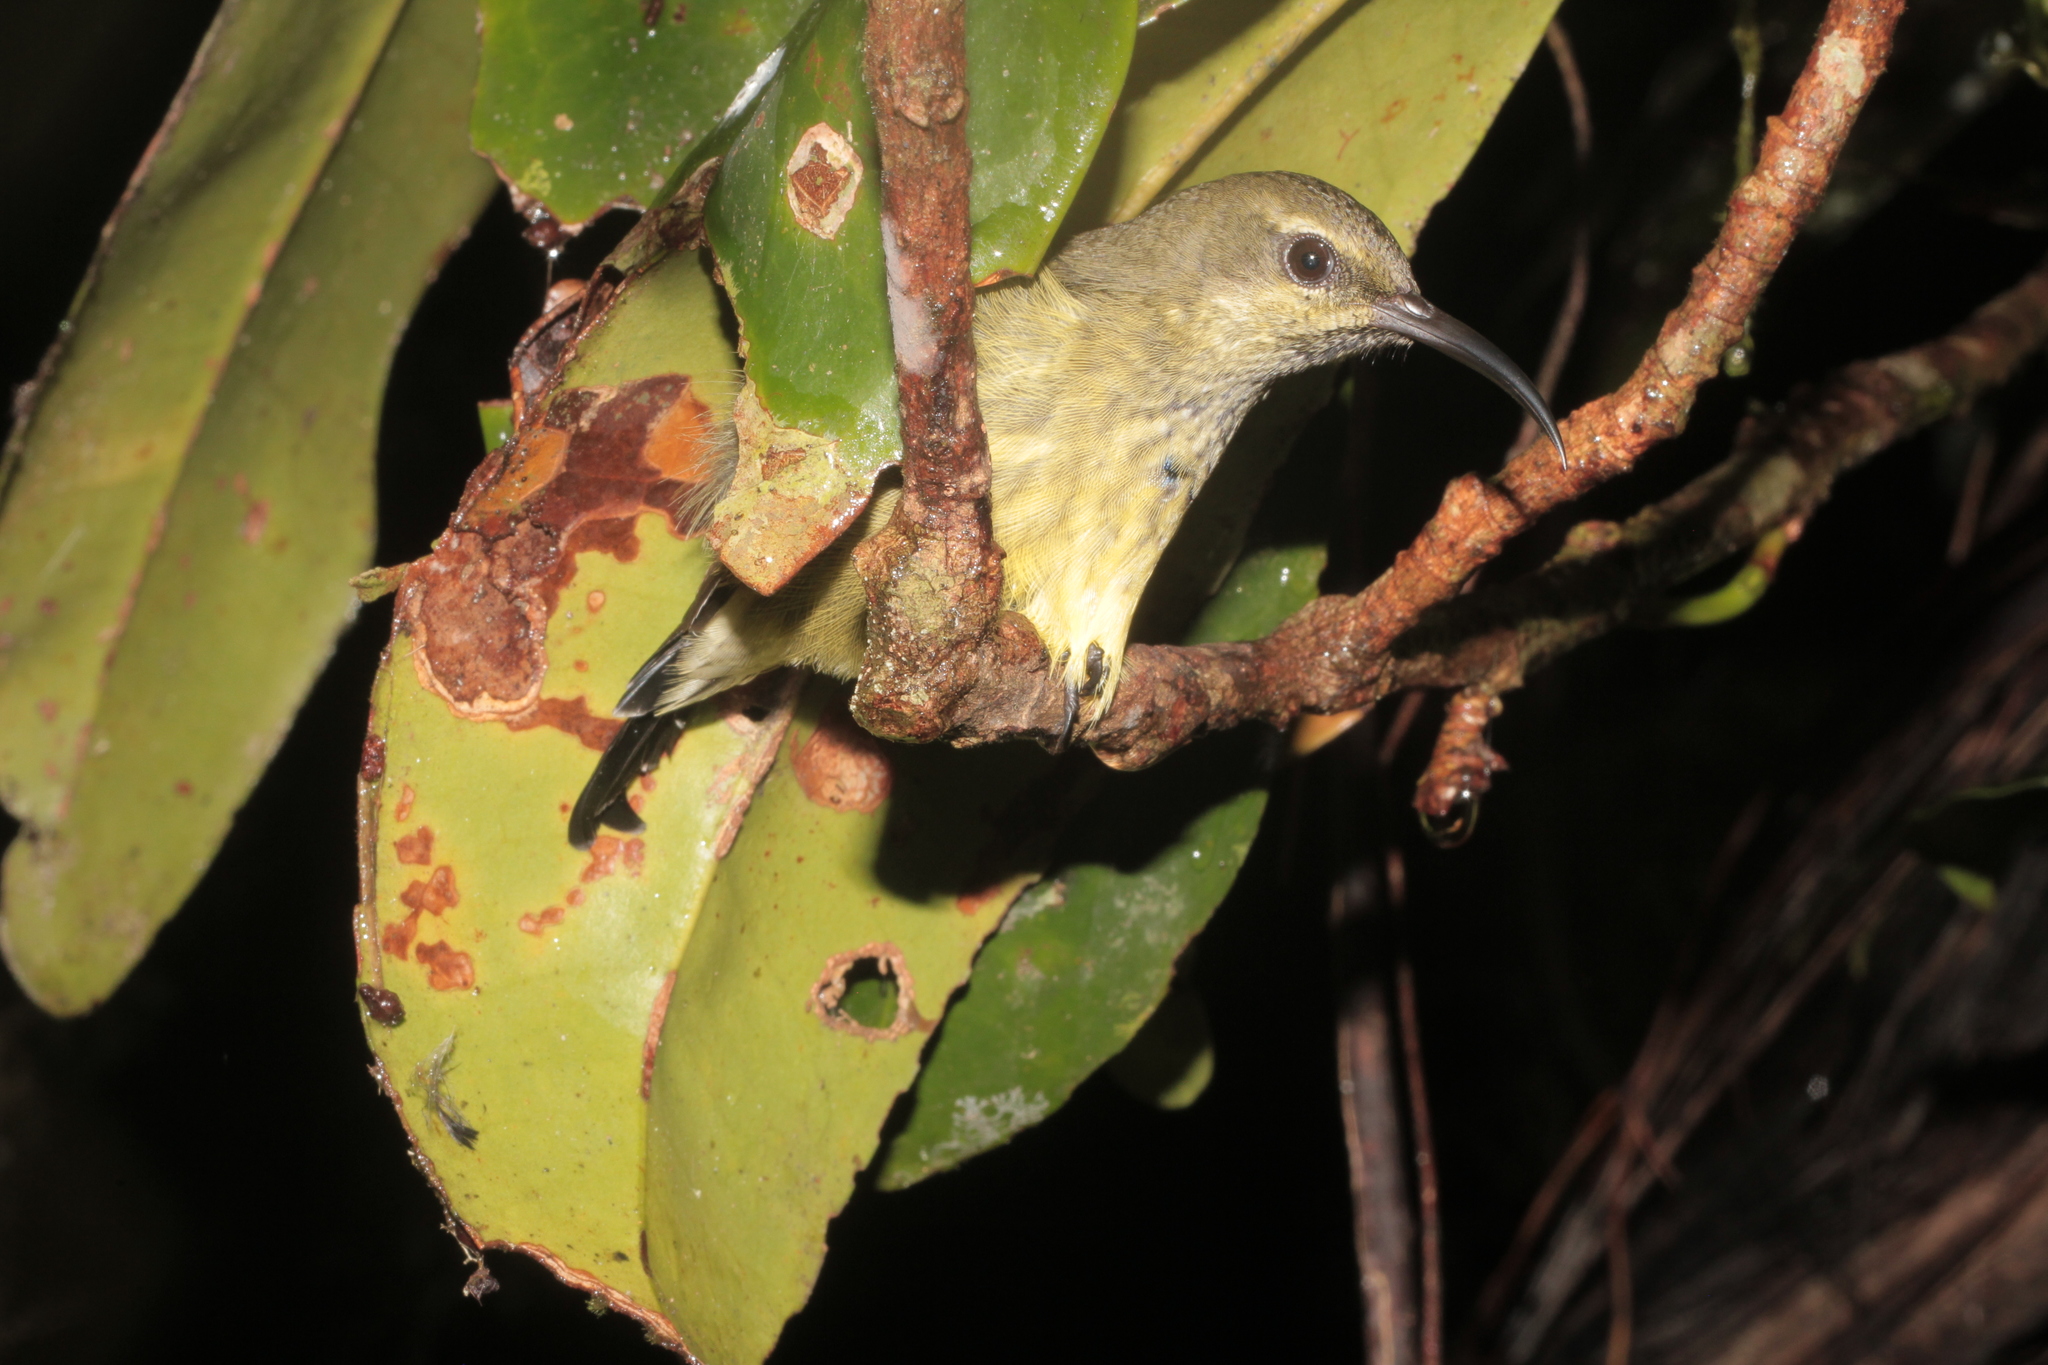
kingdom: Animalia
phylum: Chordata
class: Aves
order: Passeriformes
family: Nectariniidae
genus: Cinnyris
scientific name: Cinnyris sovimanga
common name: Souimanga sunbird
